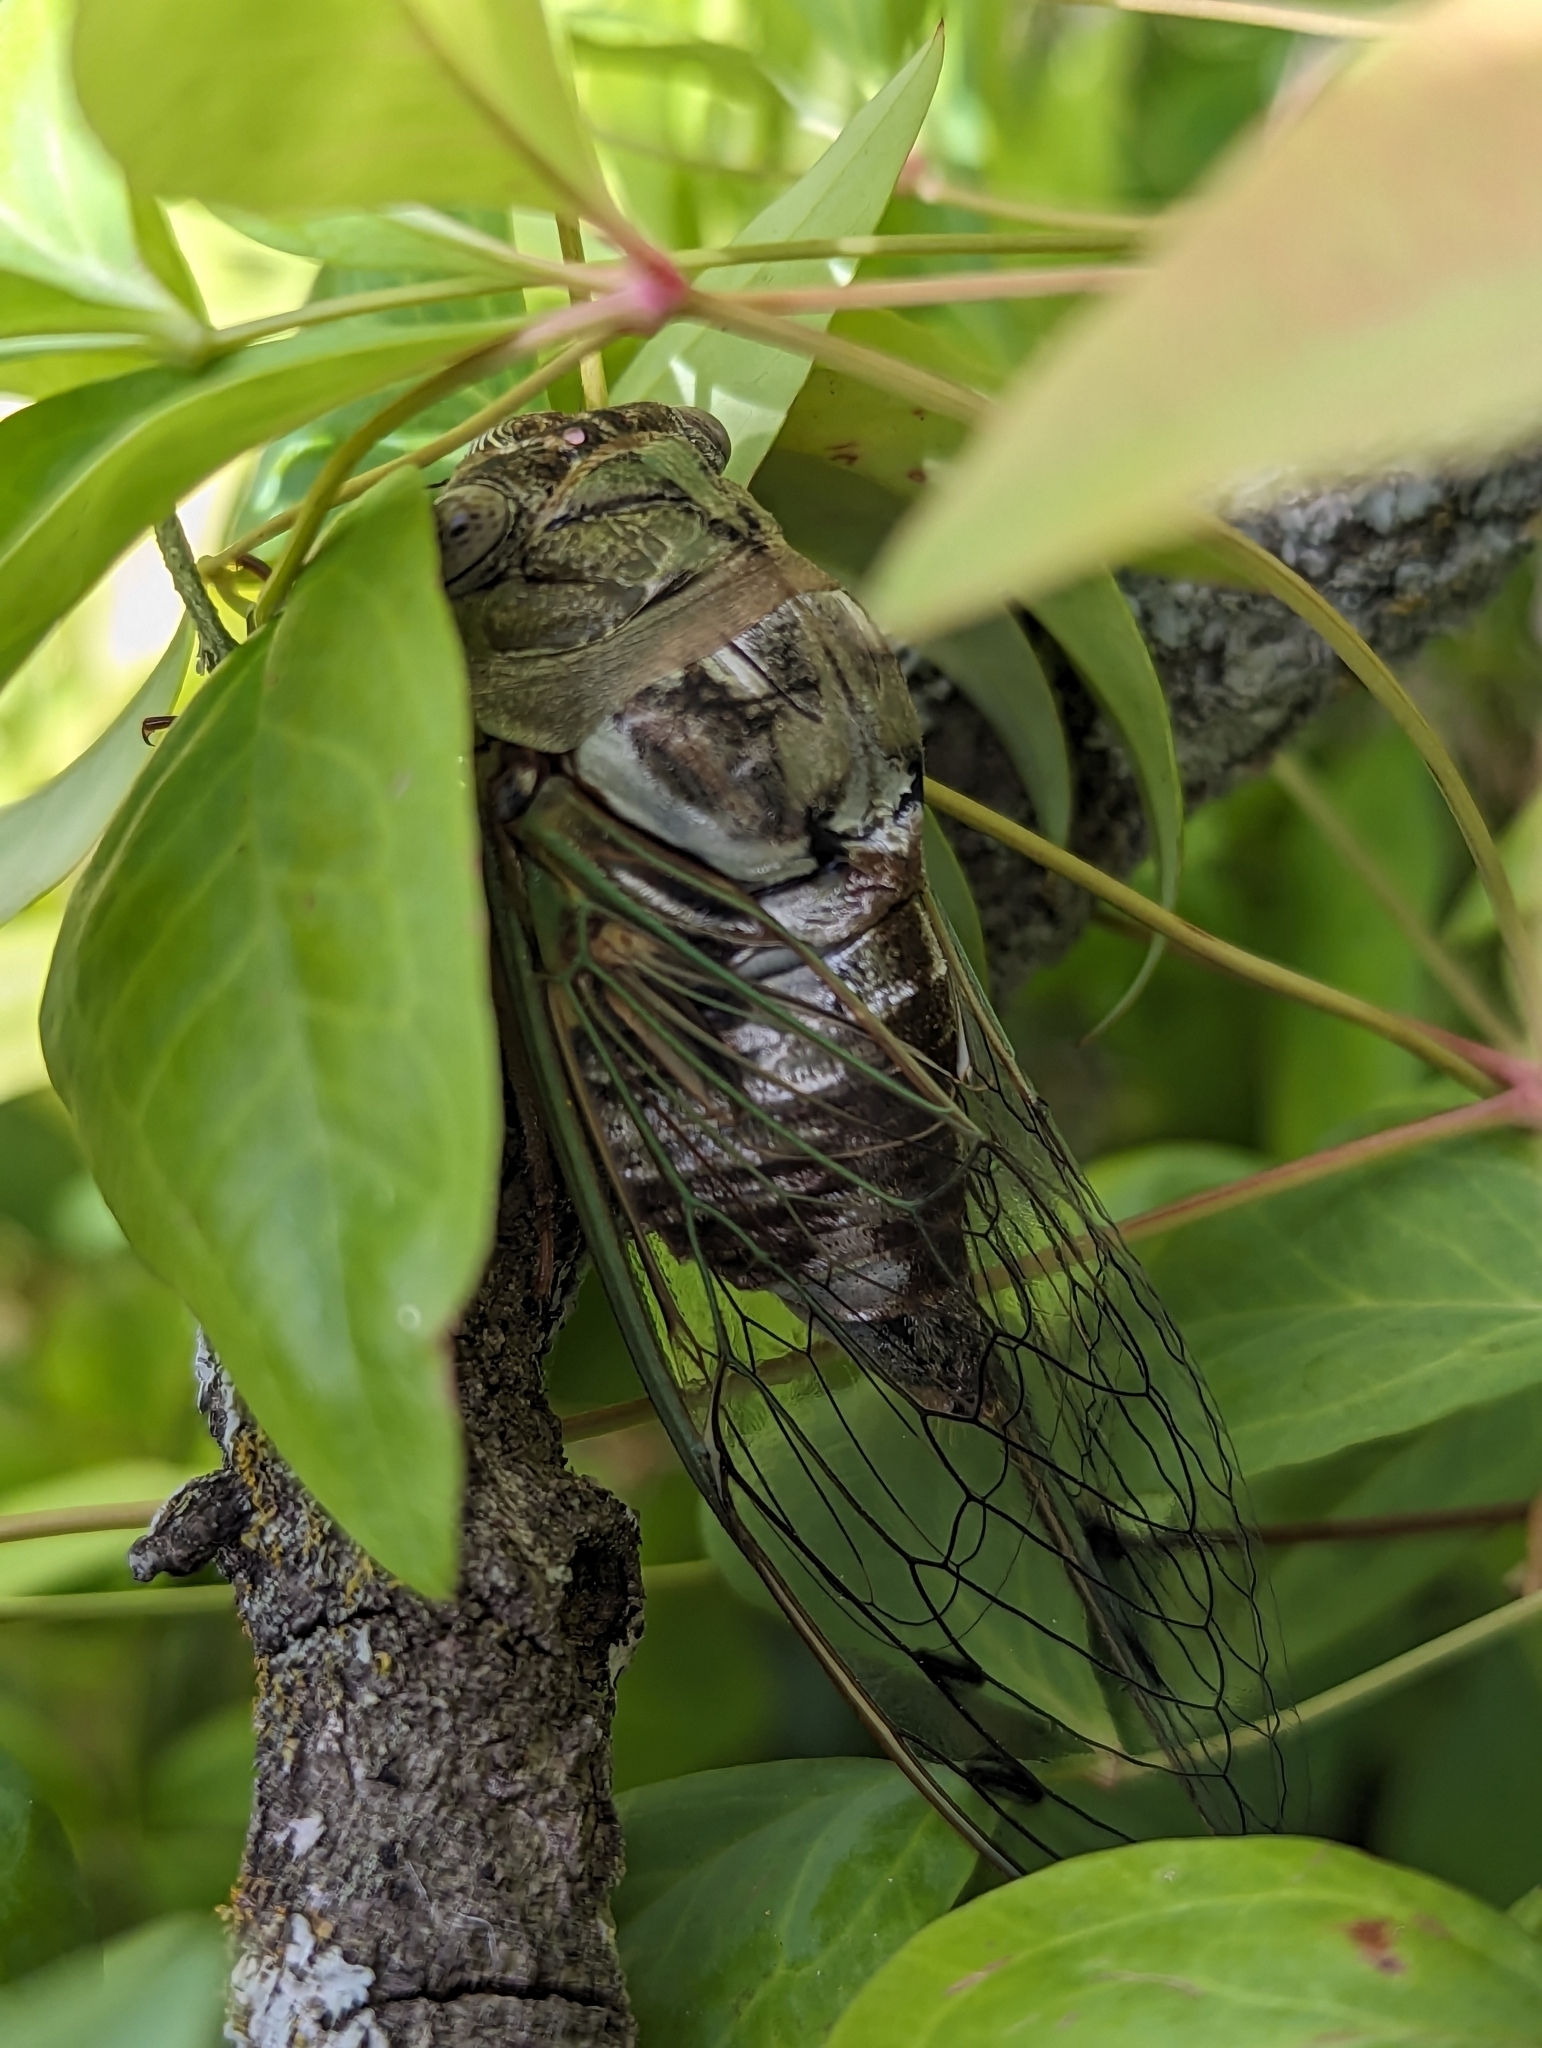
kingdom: Animalia
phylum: Arthropoda
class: Insecta
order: Hemiptera
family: Cicadidae
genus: Megatibicen
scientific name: Megatibicen resh
